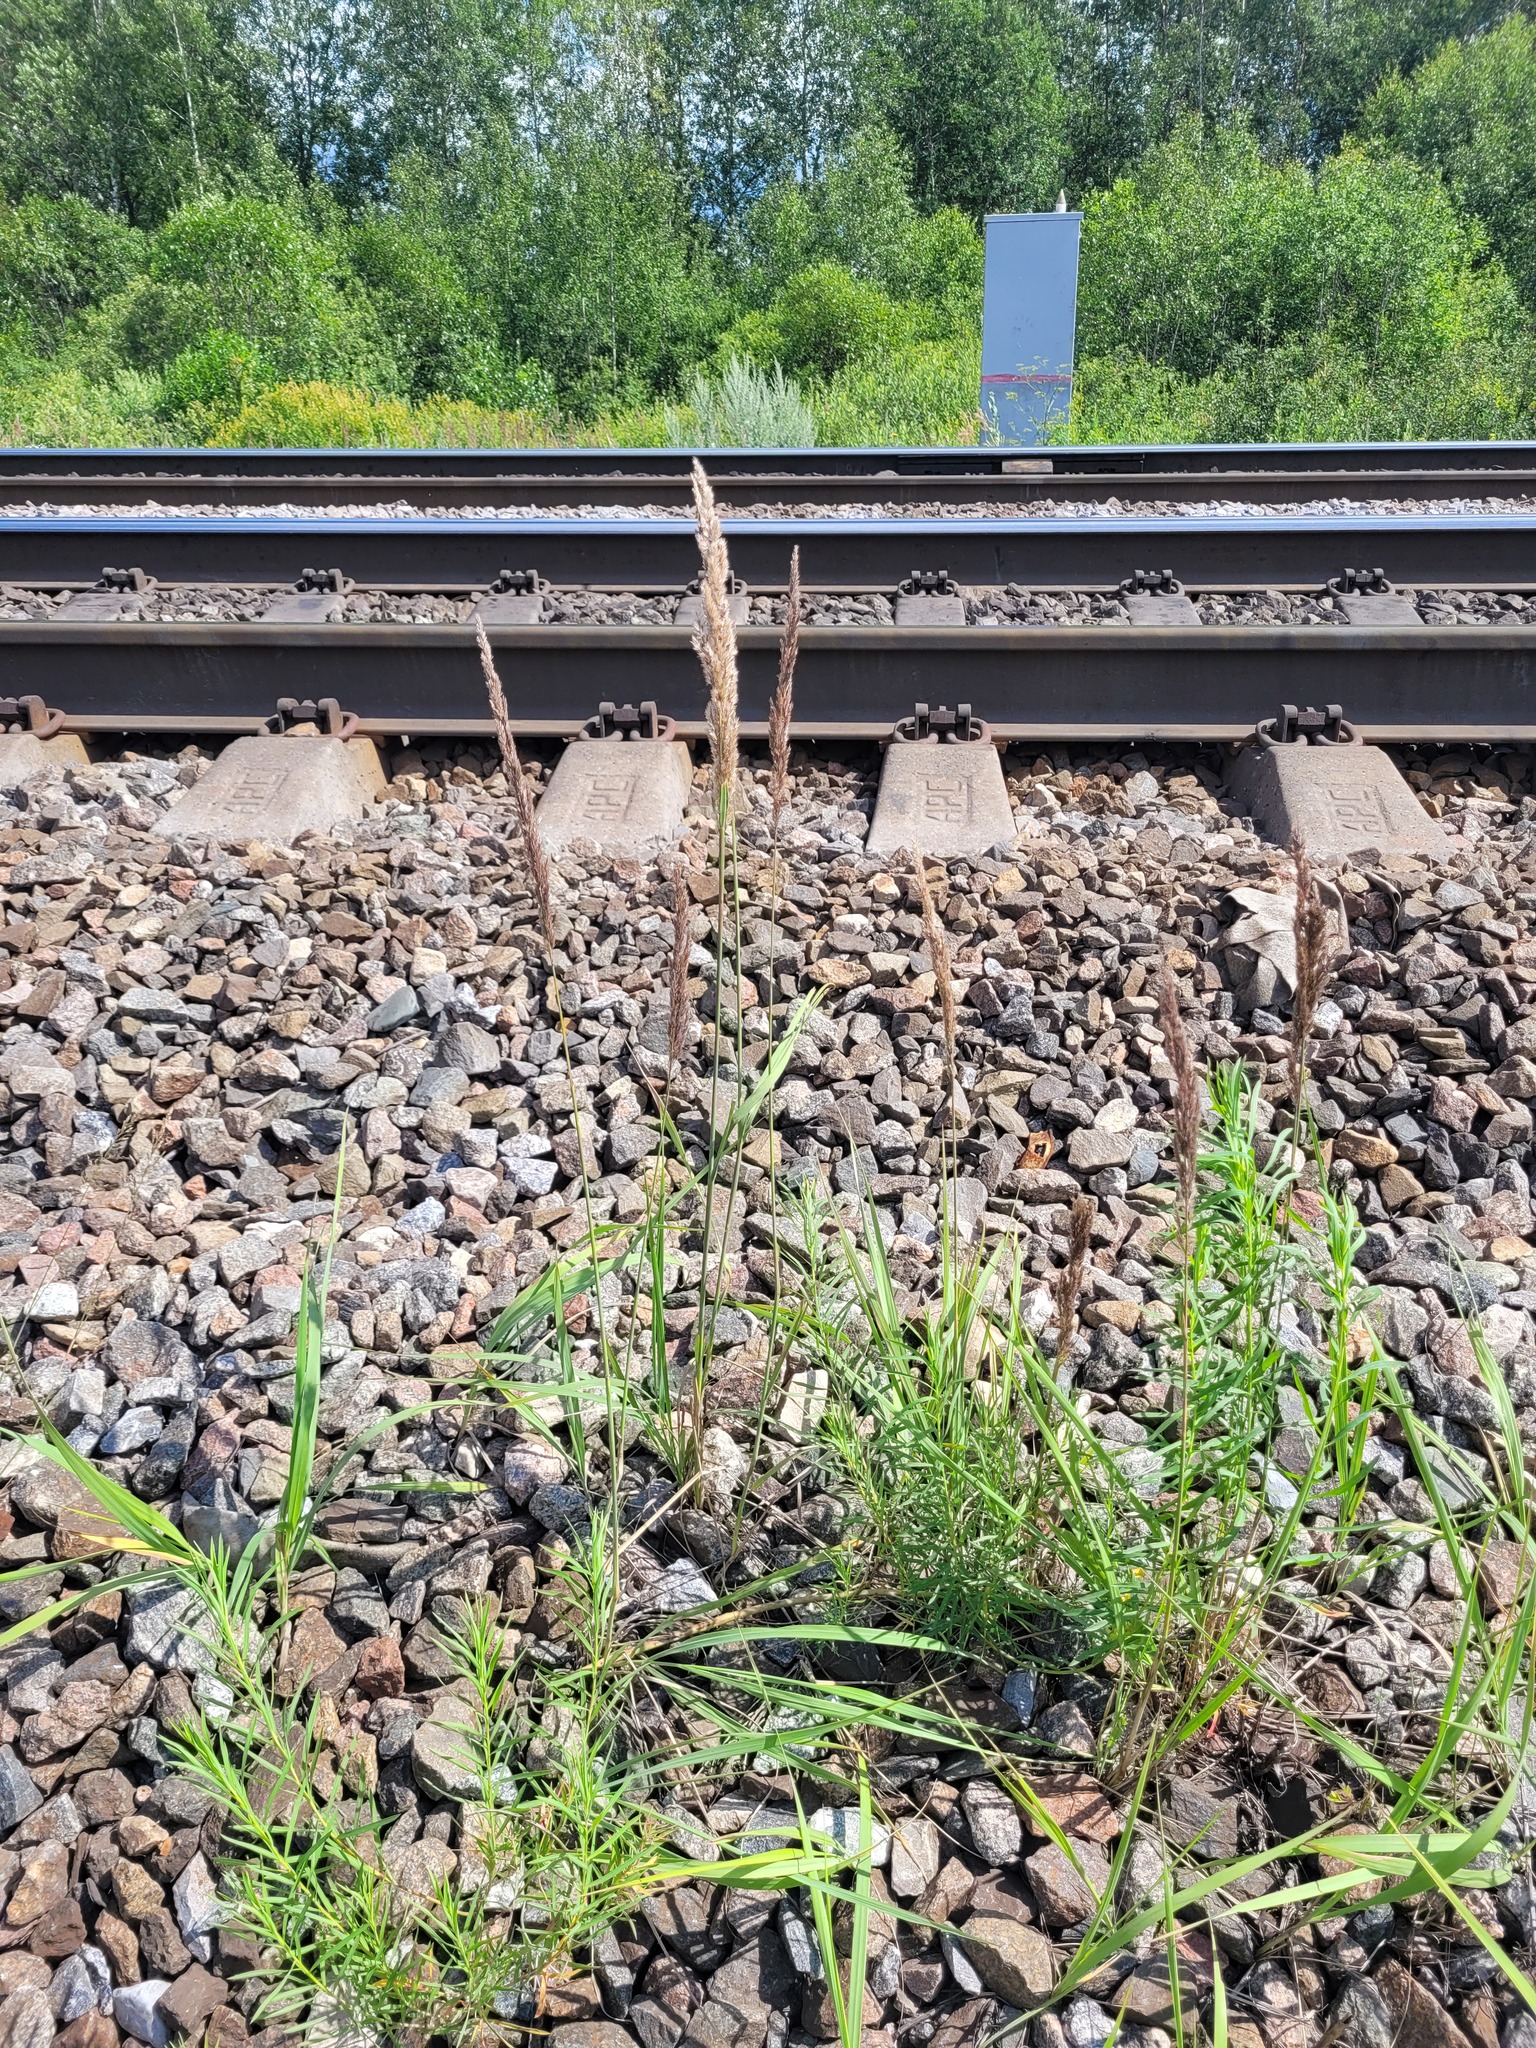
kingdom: Plantae
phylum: Tracheophyta
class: Liliopsida
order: Poales
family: Poaceae
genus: Calamagrostis
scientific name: Calamagrostis epigejos
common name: Wood small-reed
